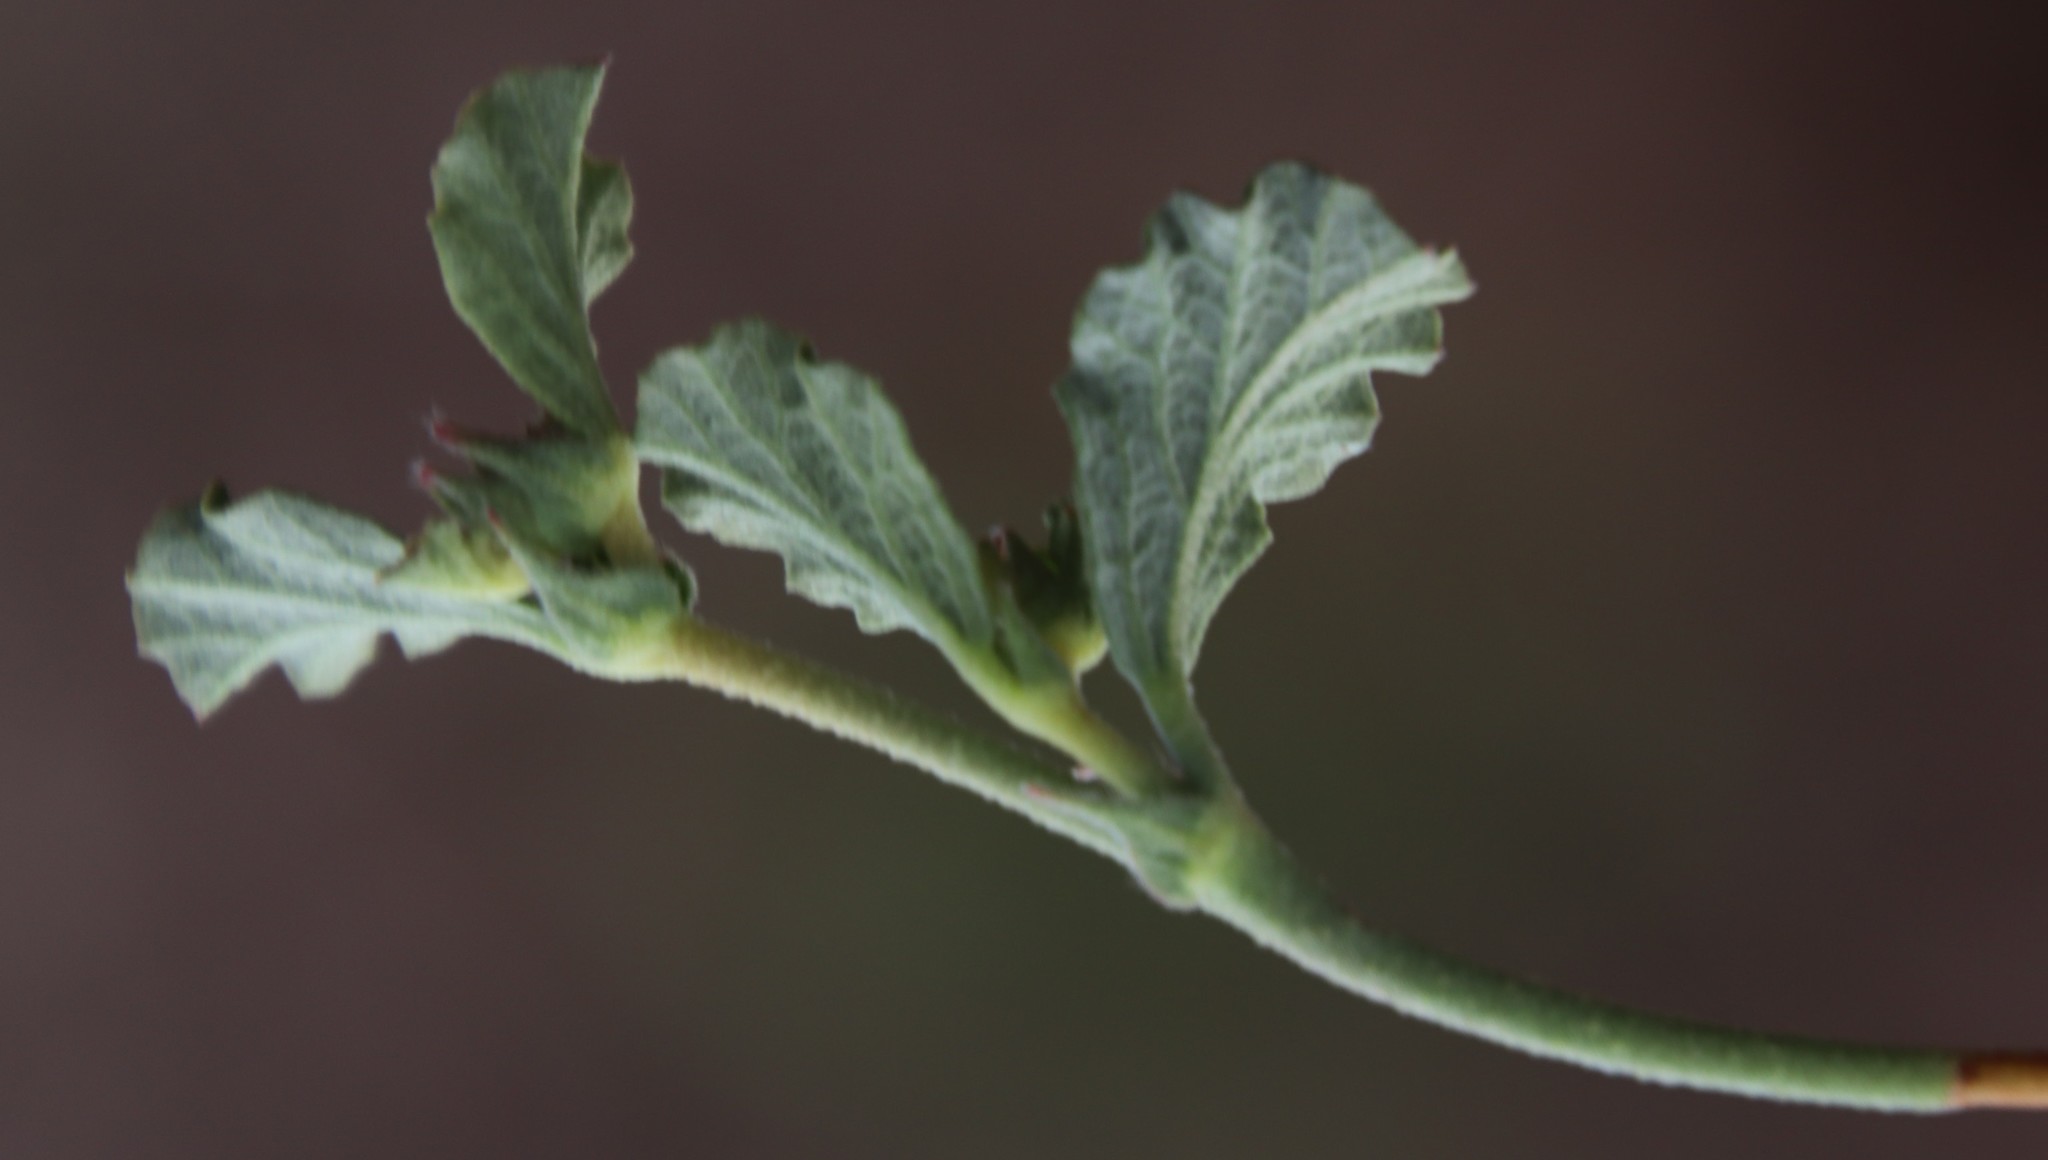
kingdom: Plantae
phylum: Tracheophyta
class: Magnoliopsida
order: Malvales
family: Malvaceae
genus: Hermannia
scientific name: Hermannia multiflora
